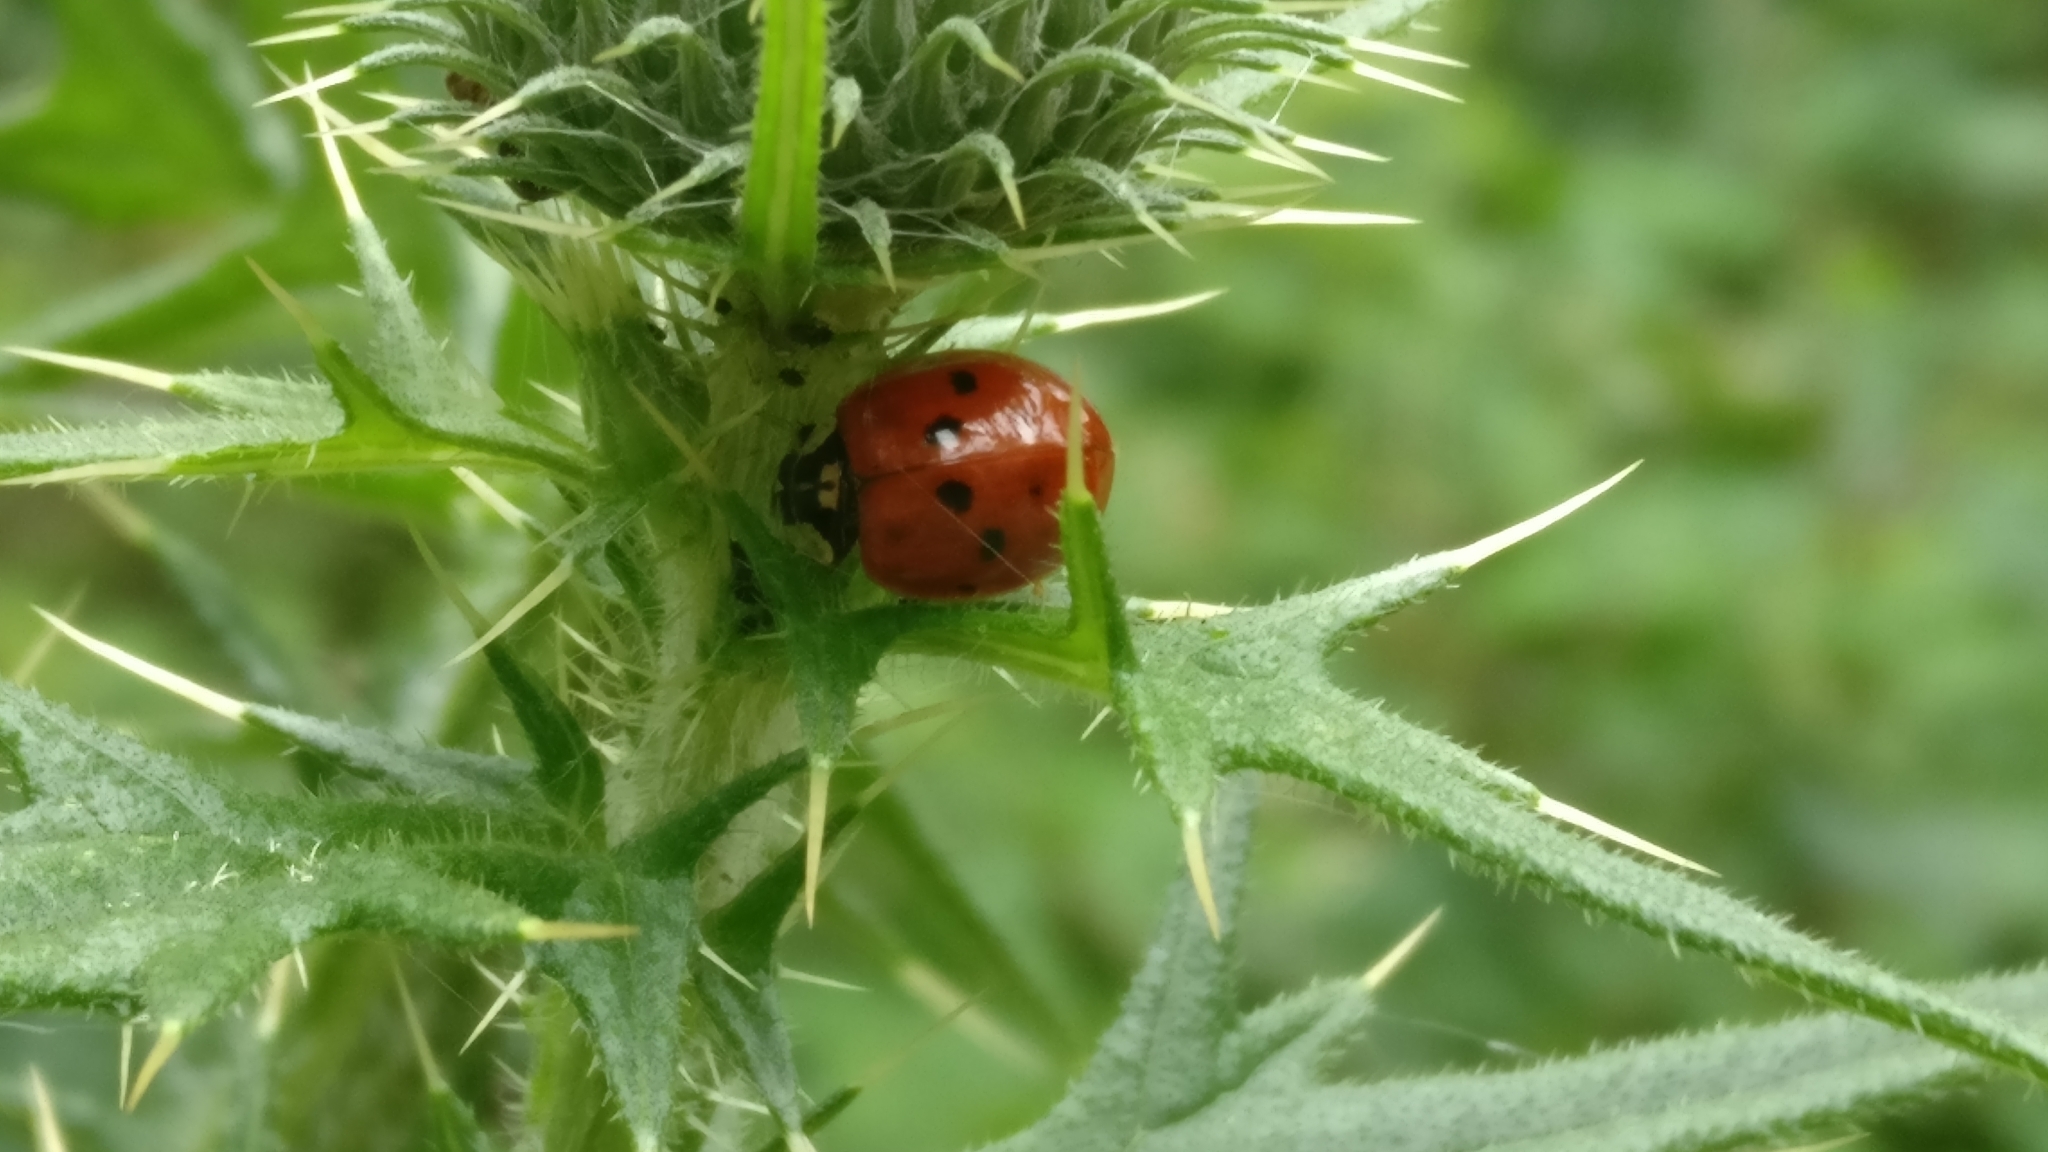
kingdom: Animalia
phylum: Arthropoda
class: Insecta
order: Coleoptera
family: Coccinellidae
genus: Harmonia
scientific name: Harmonia axyridis
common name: Harlequin ladybird
